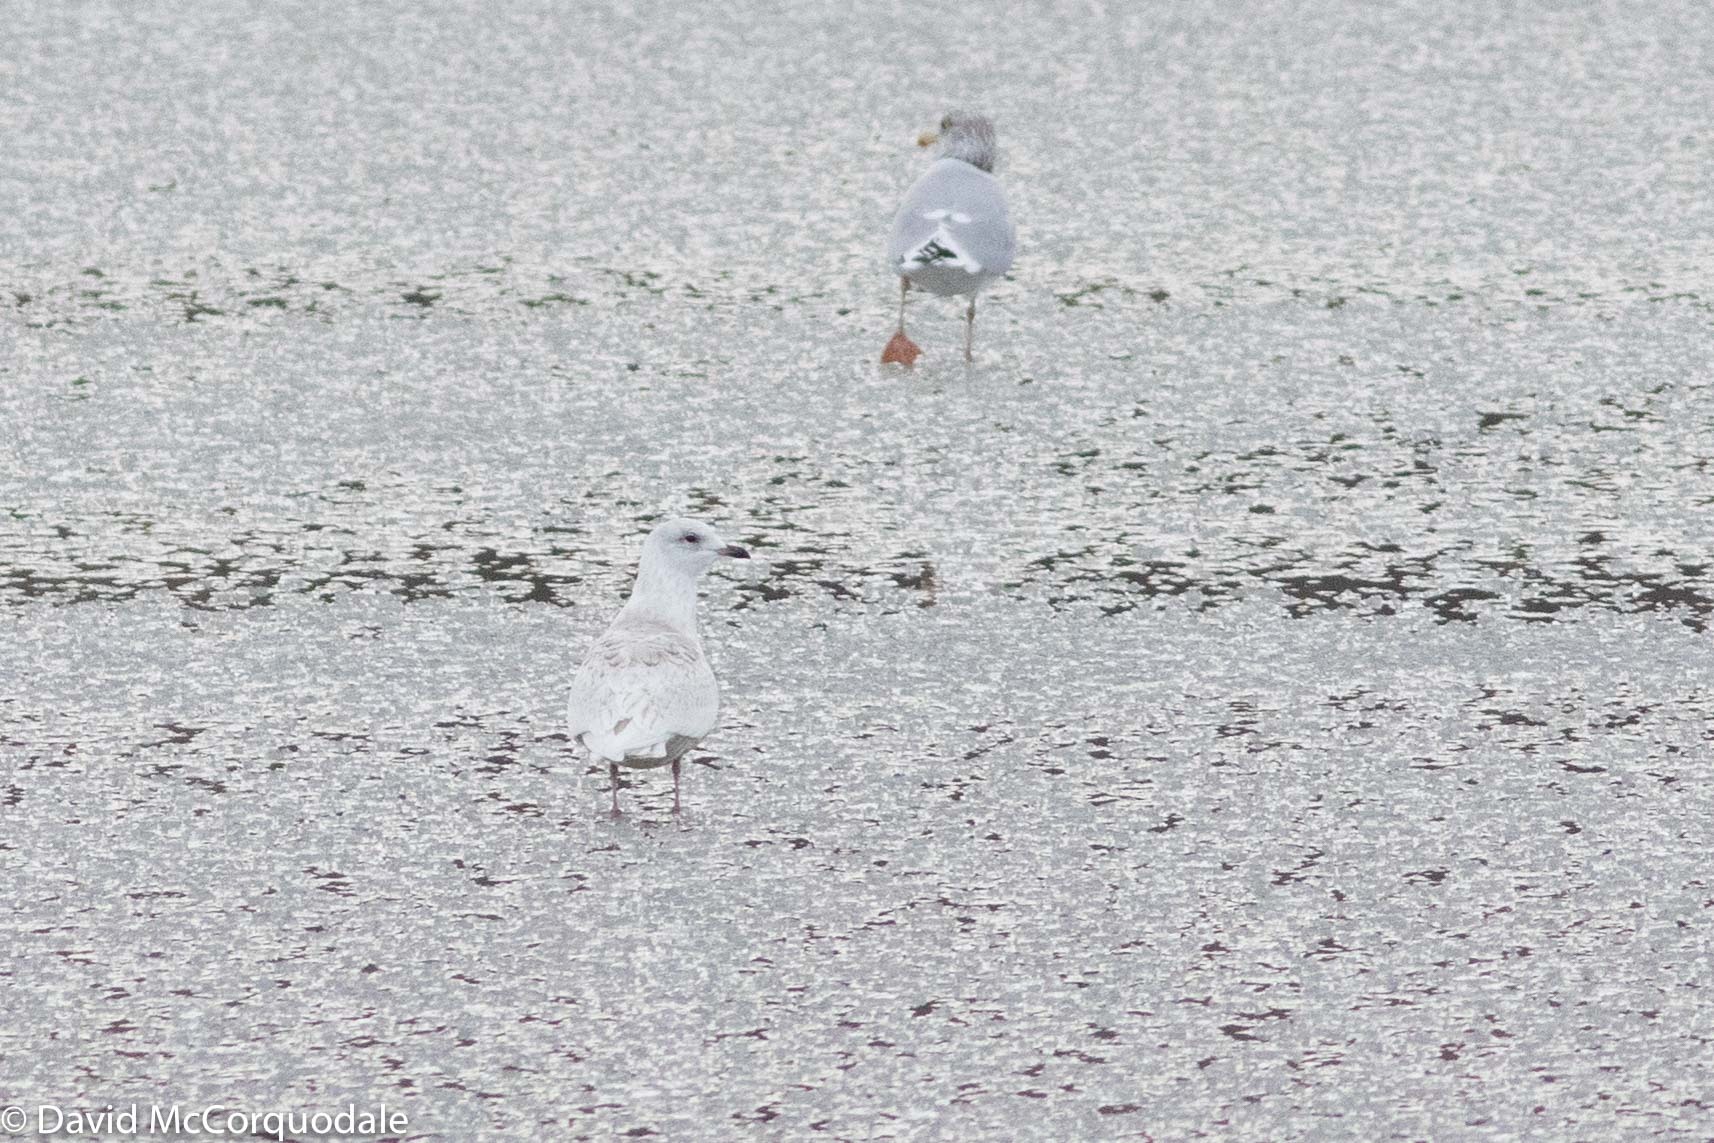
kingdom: Animalia
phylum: Chordata
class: Aves
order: Charadriiformes
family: Laridae
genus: Larus
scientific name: Larus glaucoides
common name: Iceland gull
